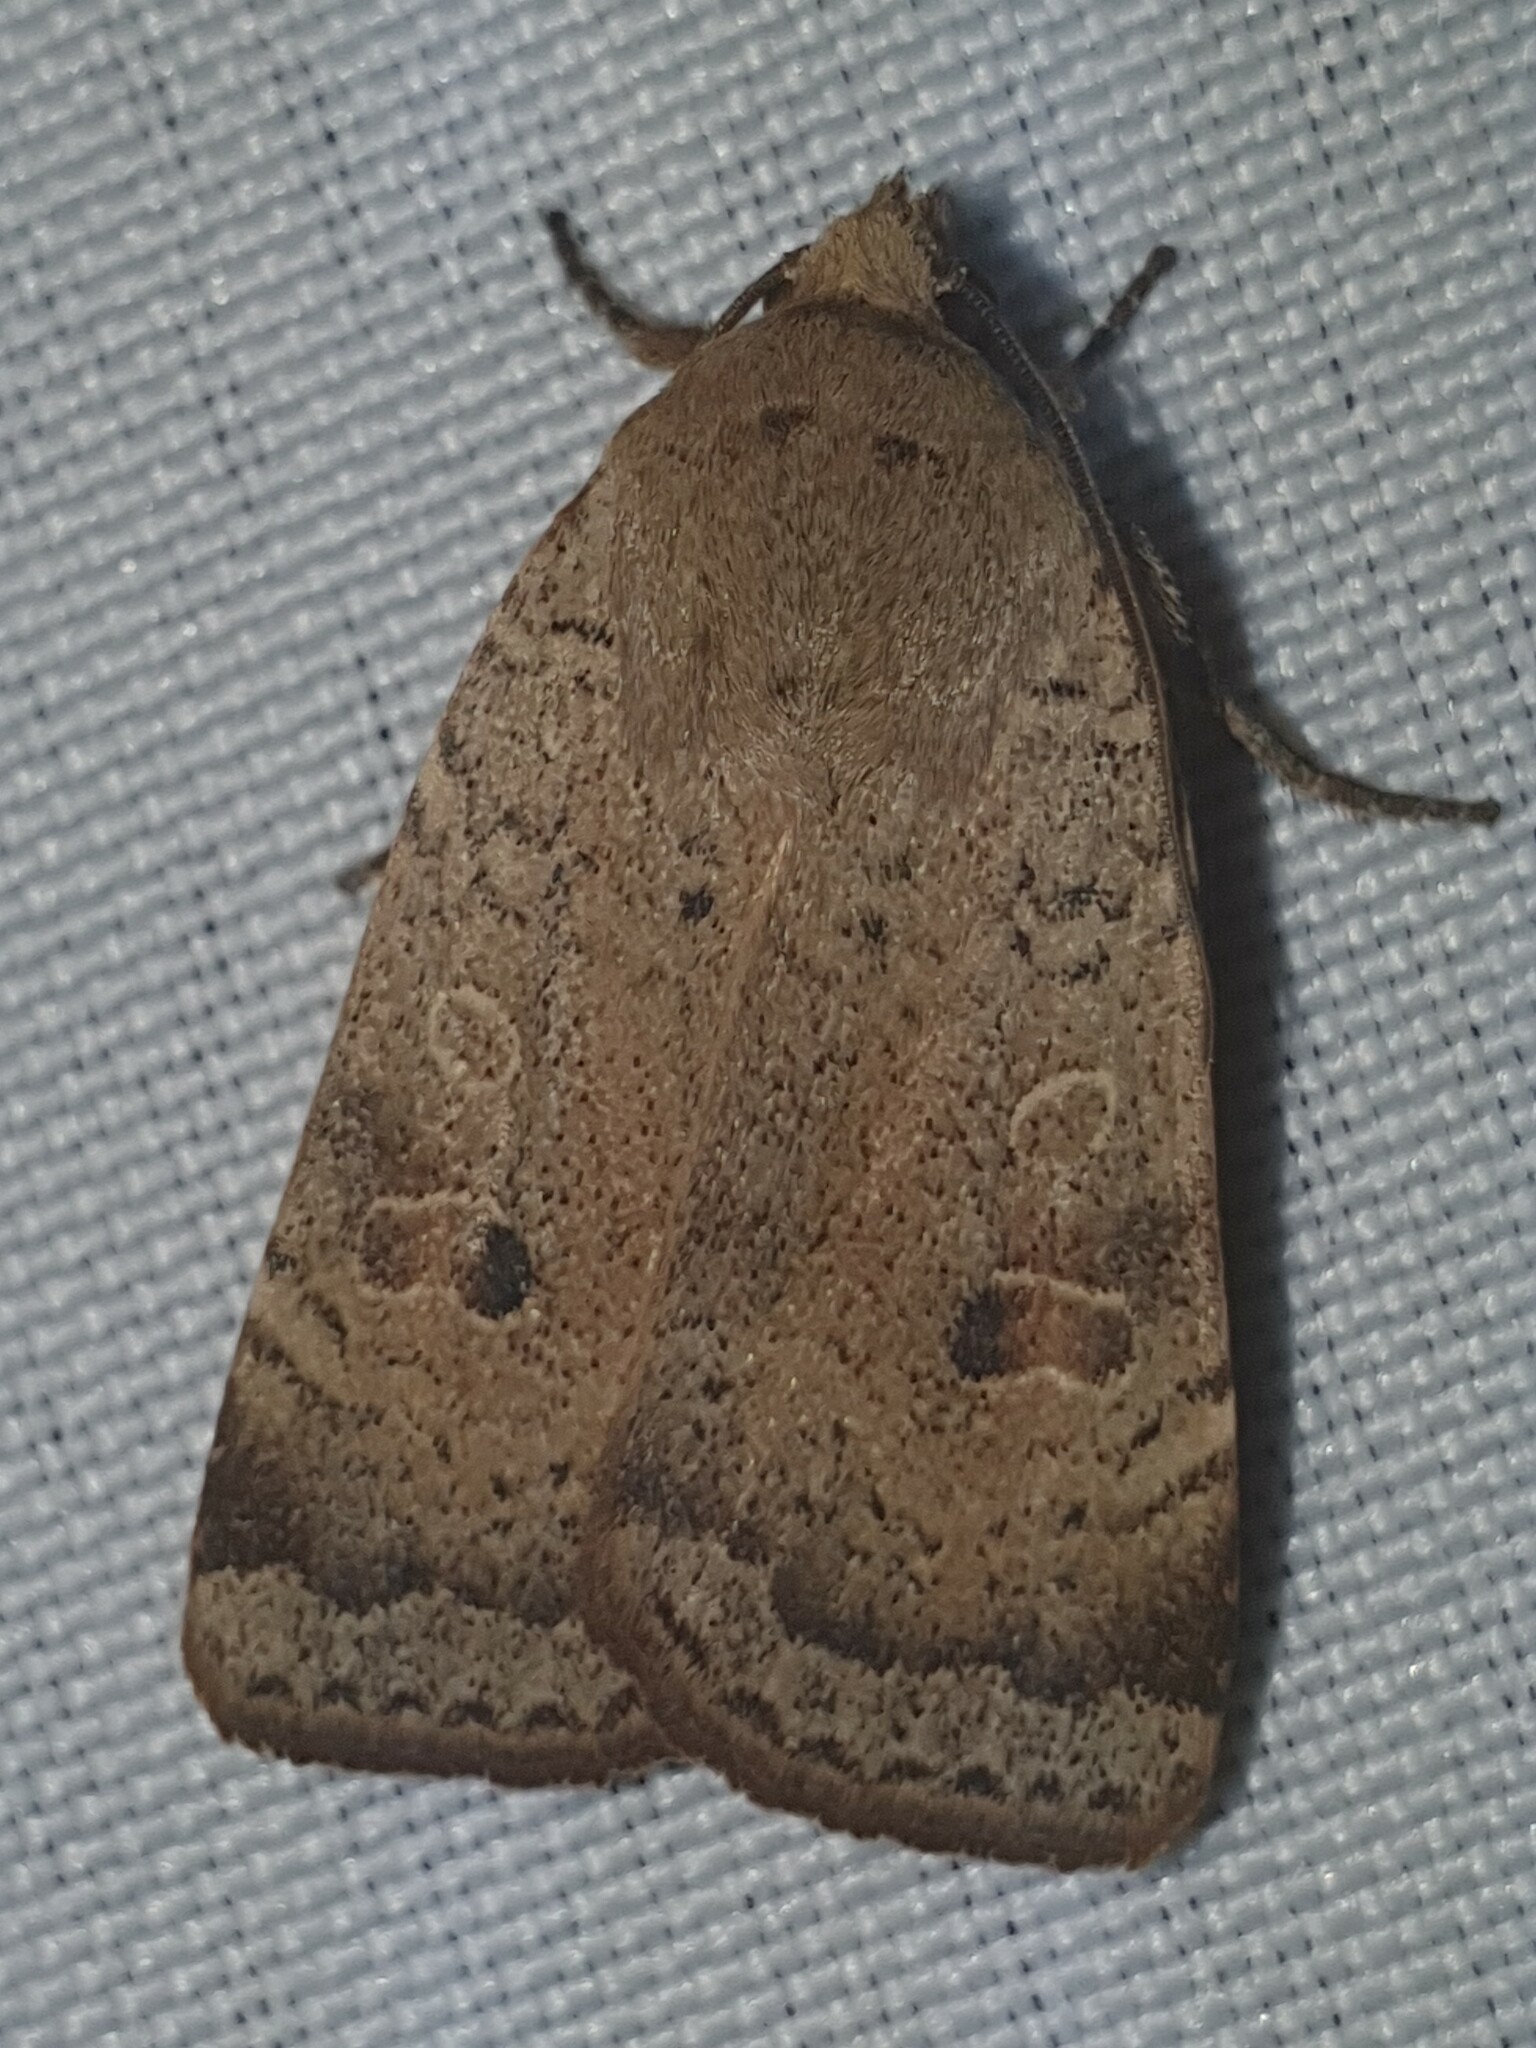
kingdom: Animalia
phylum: Arthropoda
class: Insecta
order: Lepidoptera
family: Noctuidae
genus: Noctua
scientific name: Noctua comes
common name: Lesser yellow underwing
